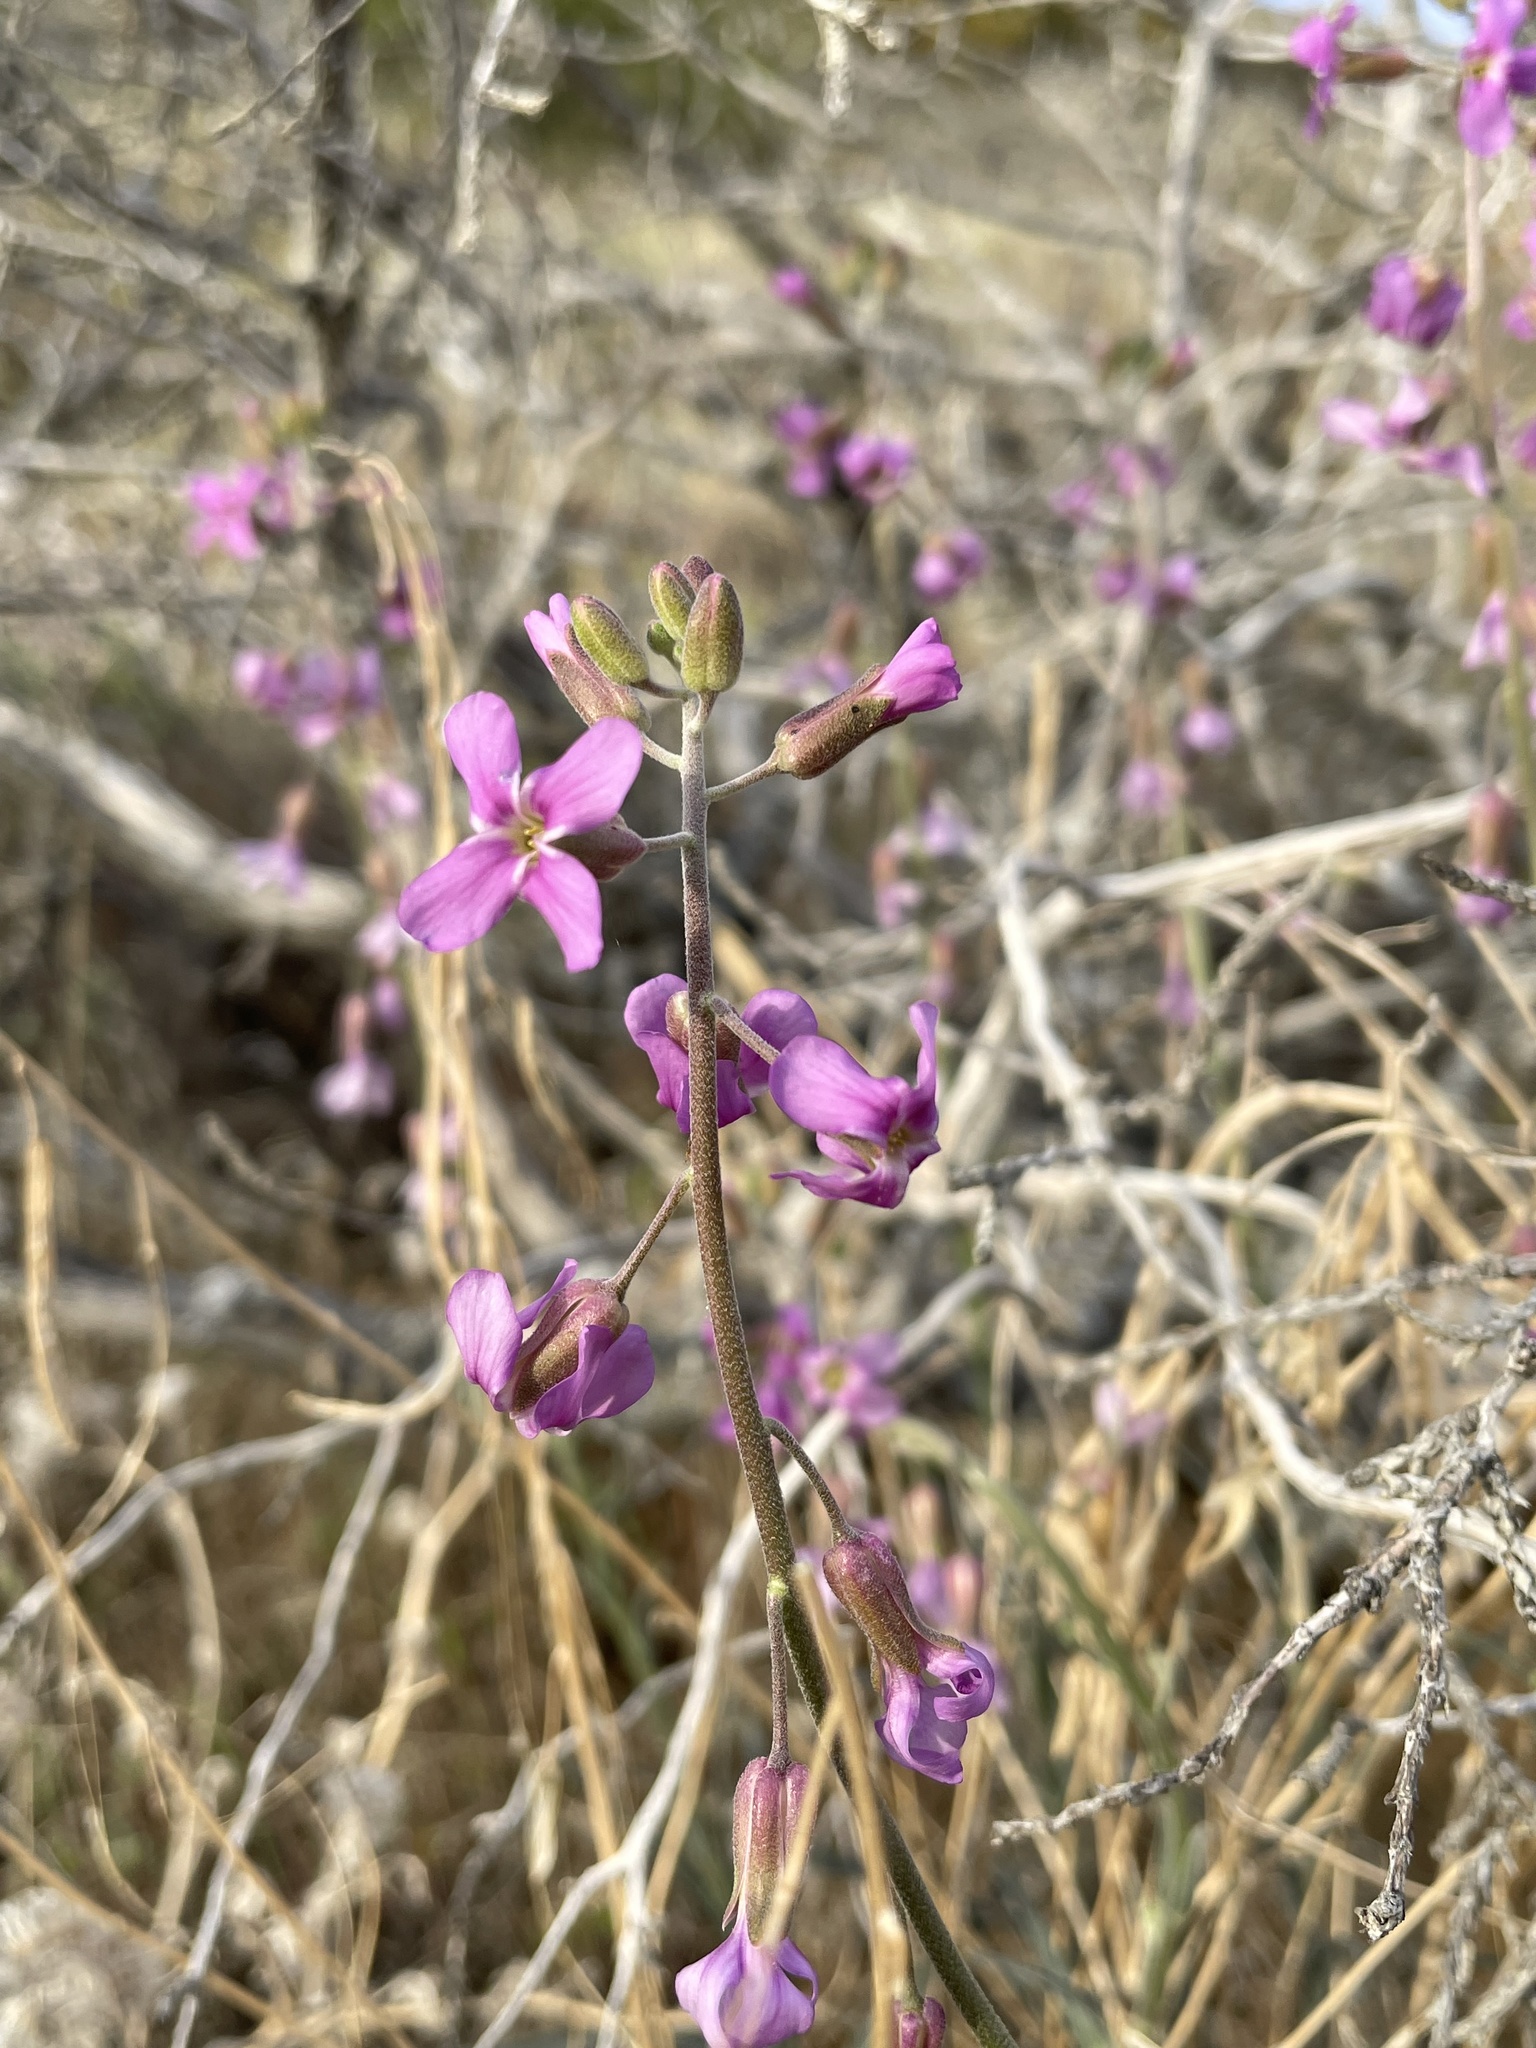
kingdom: Plantae
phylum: Tracheophyta
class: Magnoliopsida
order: Brassicales
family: Brassicaceae
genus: Boechera
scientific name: Boechera pulchra
